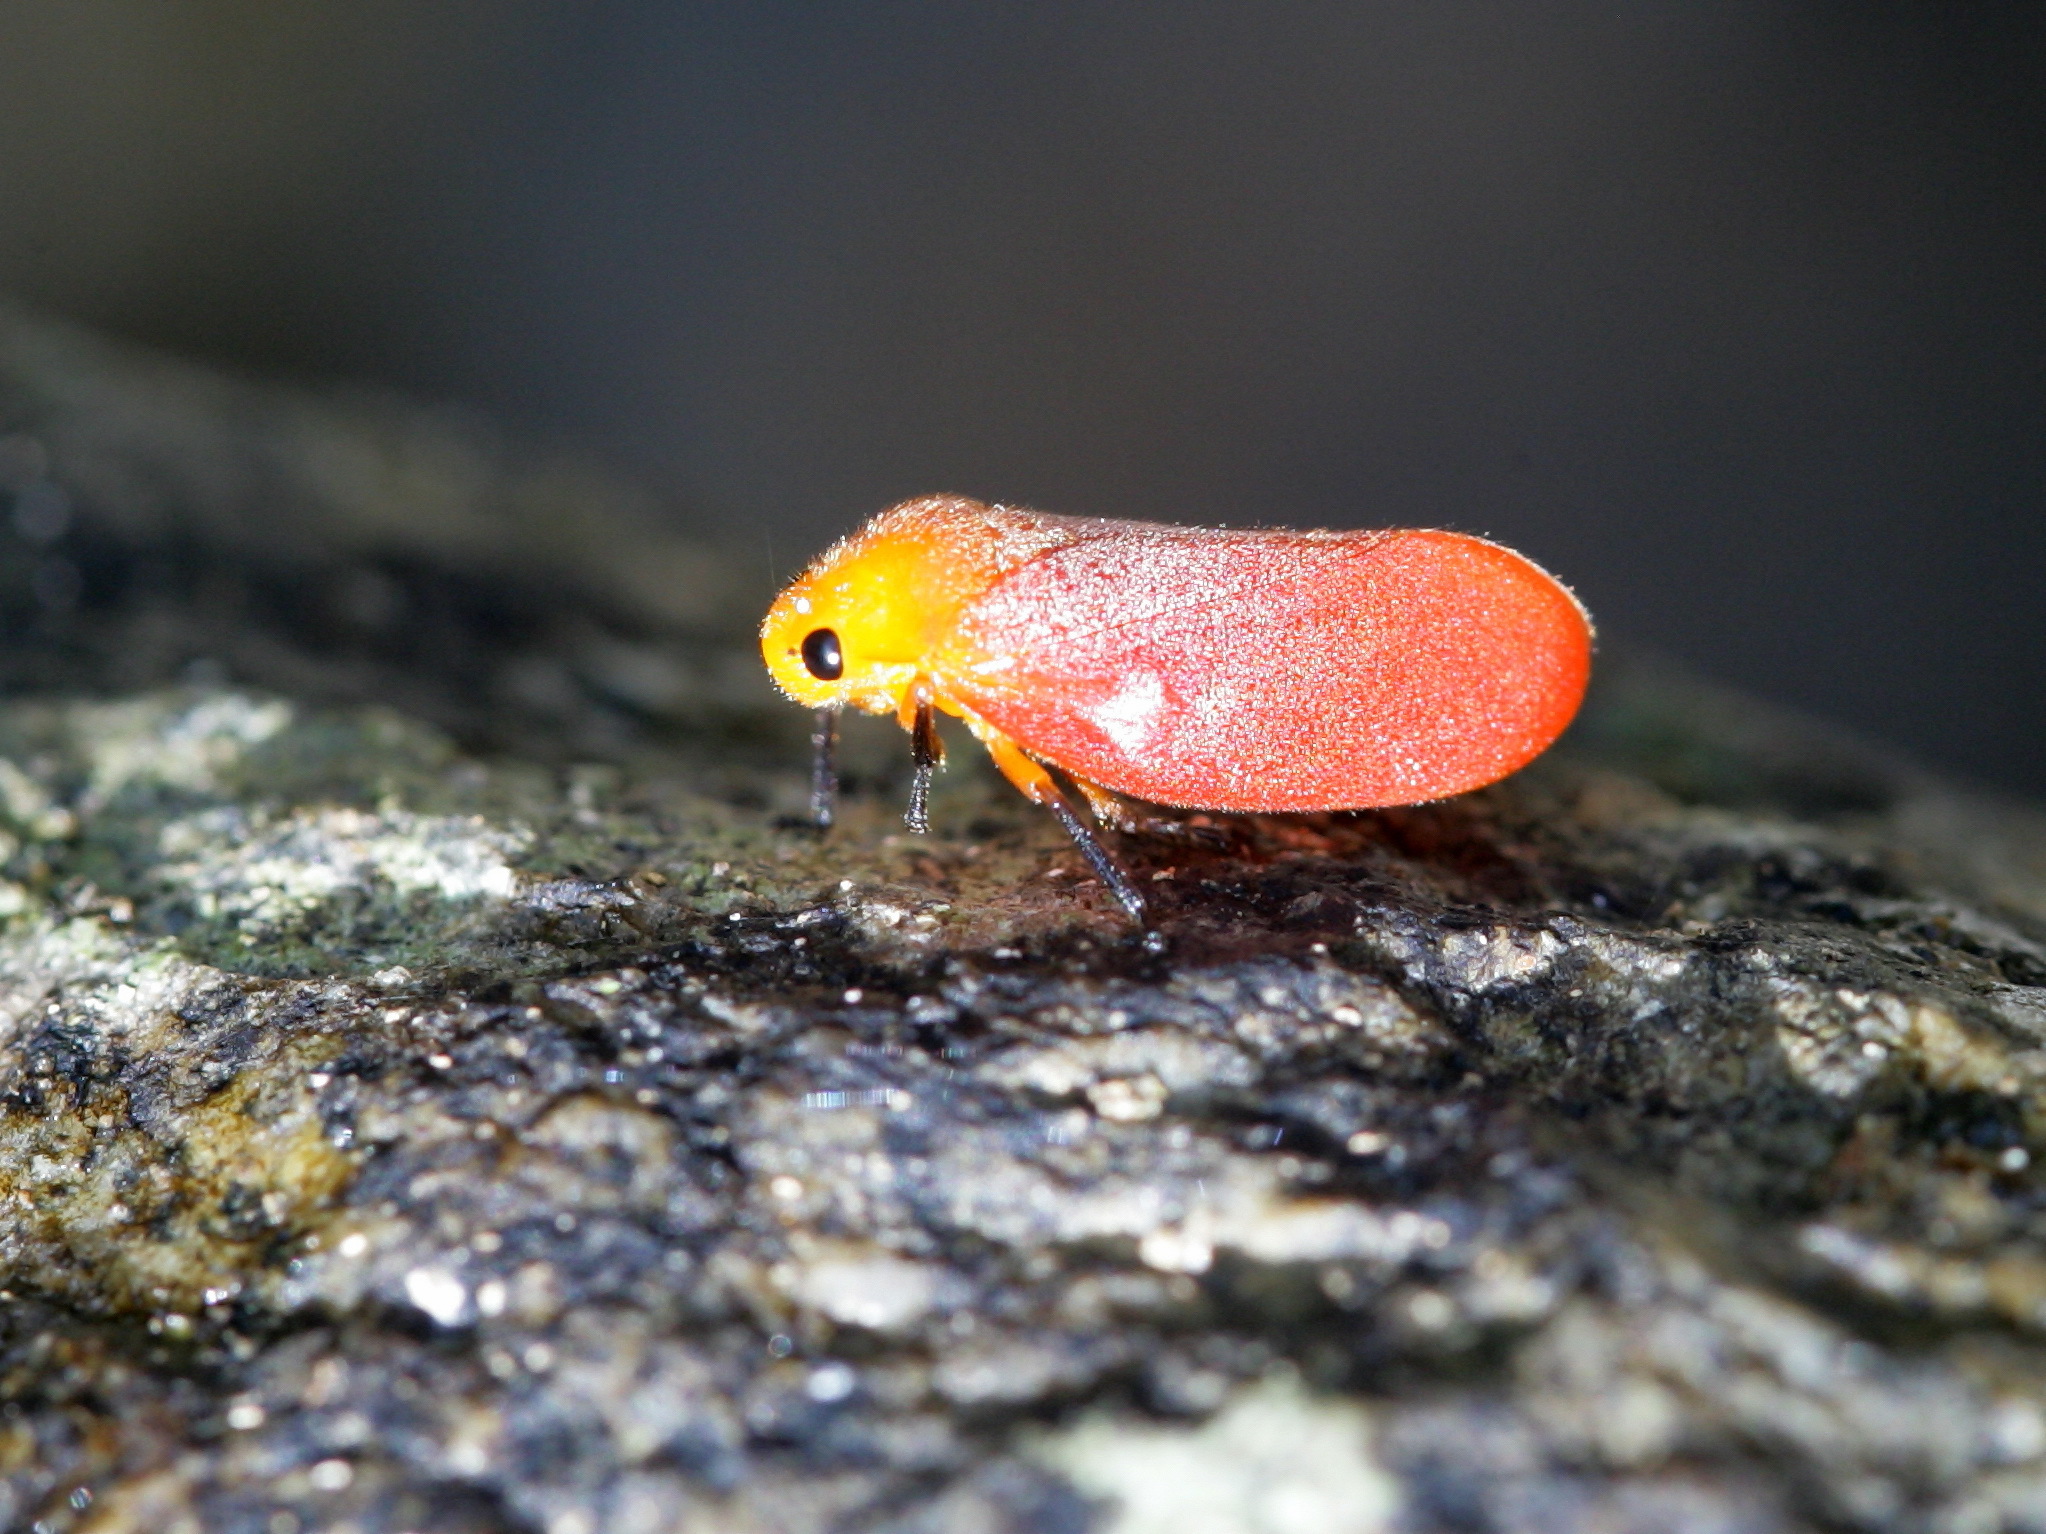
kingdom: Animalia
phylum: Arthropoda
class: Insecta
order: Hemiptera
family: Cercopidae
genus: Eoscarta
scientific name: Eoscarta borealis
